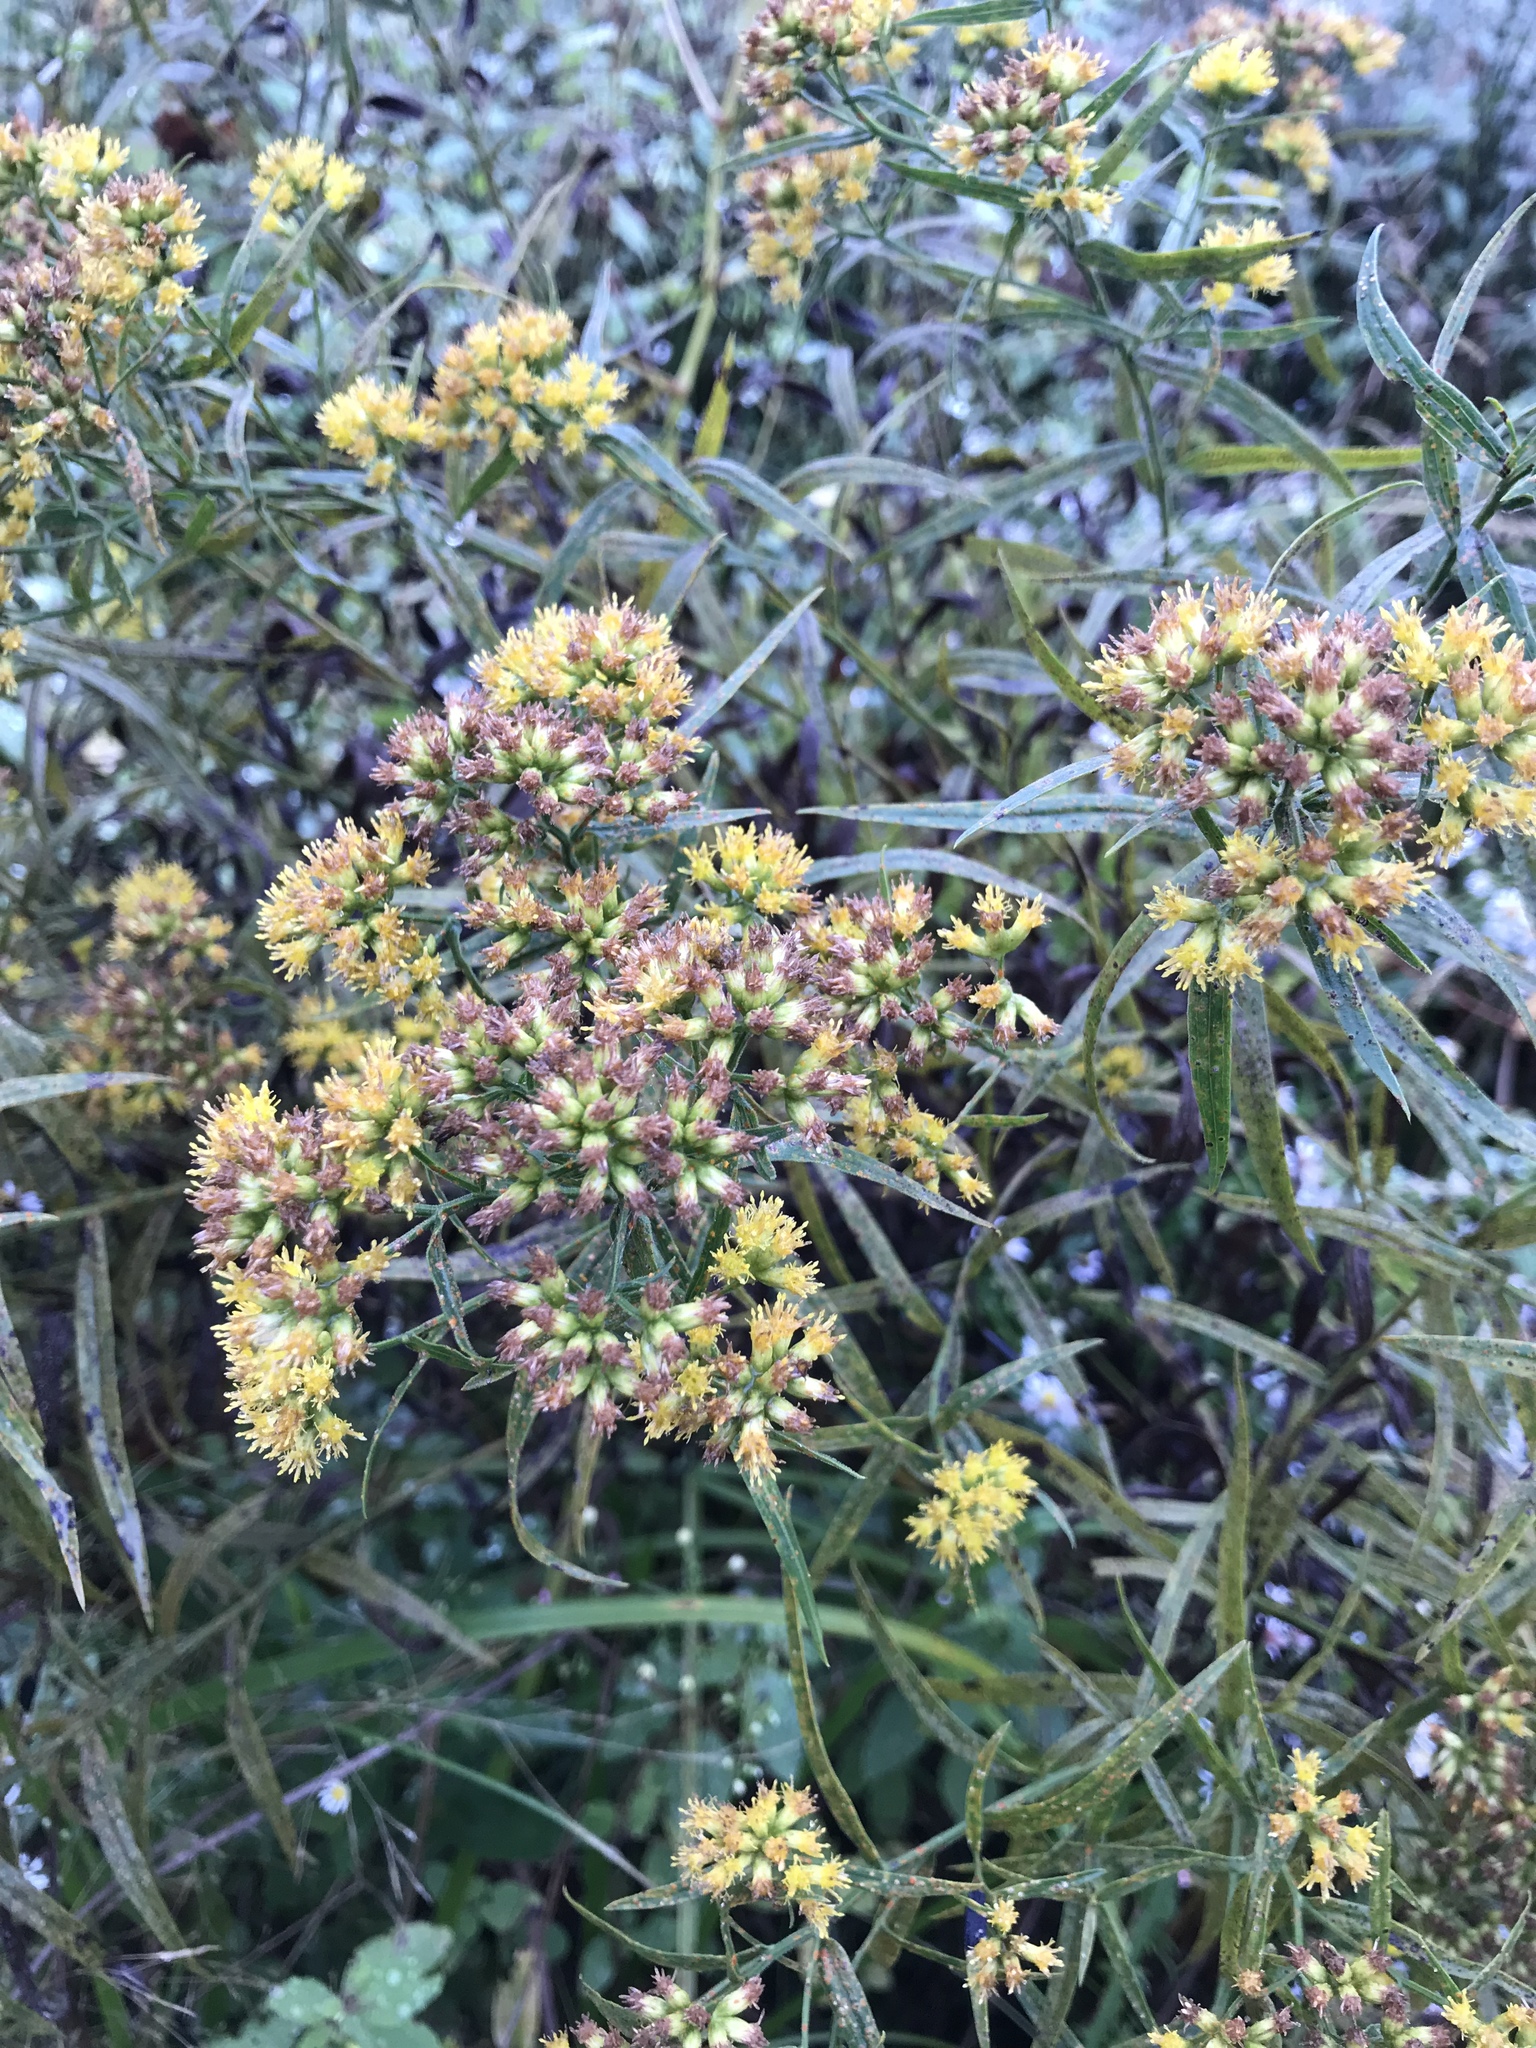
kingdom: Plantae
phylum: Tracheophyta
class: Magnoliopsida
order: Asterales
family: Asteraceae
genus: Euthamia
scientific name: Euthamia graminifolia
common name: Common goldentop
